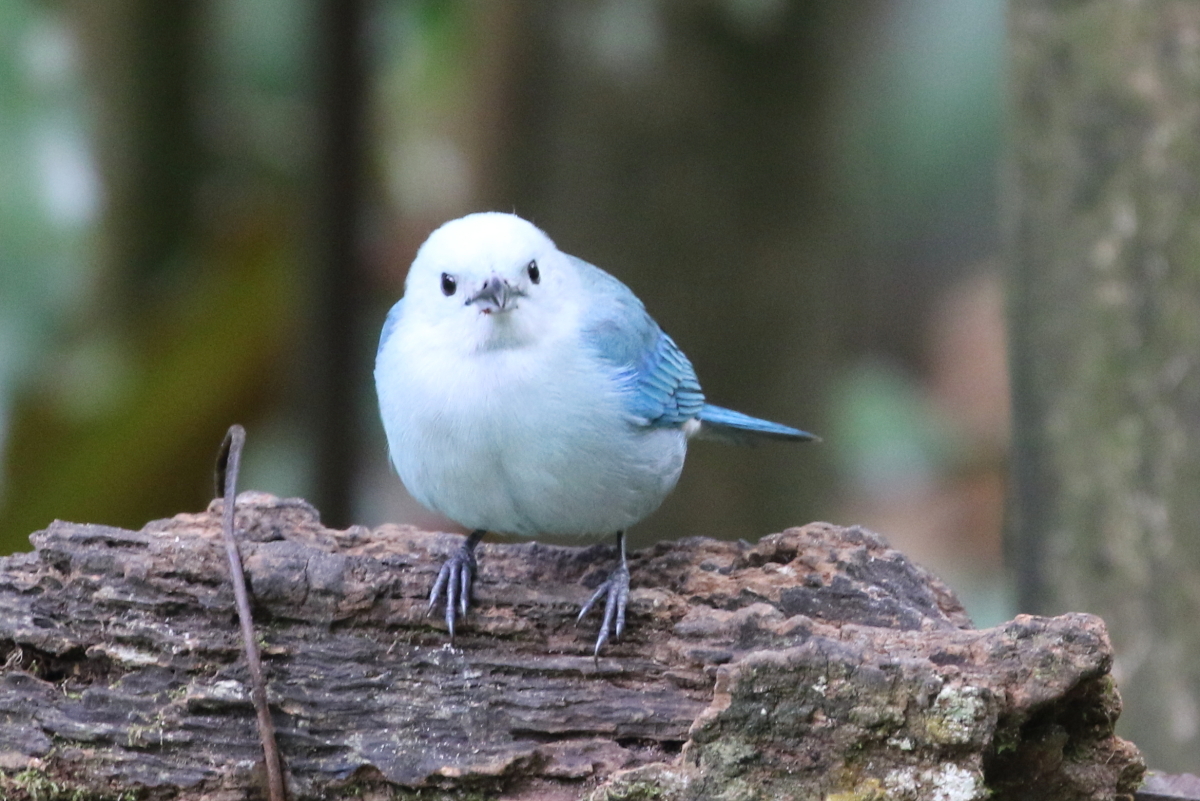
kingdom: Animalia
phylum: Chordata
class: Aves
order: Passeriformes
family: Thraupidae
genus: Thraupis
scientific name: Thraupis episcopus
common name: Blue-grey tanager
